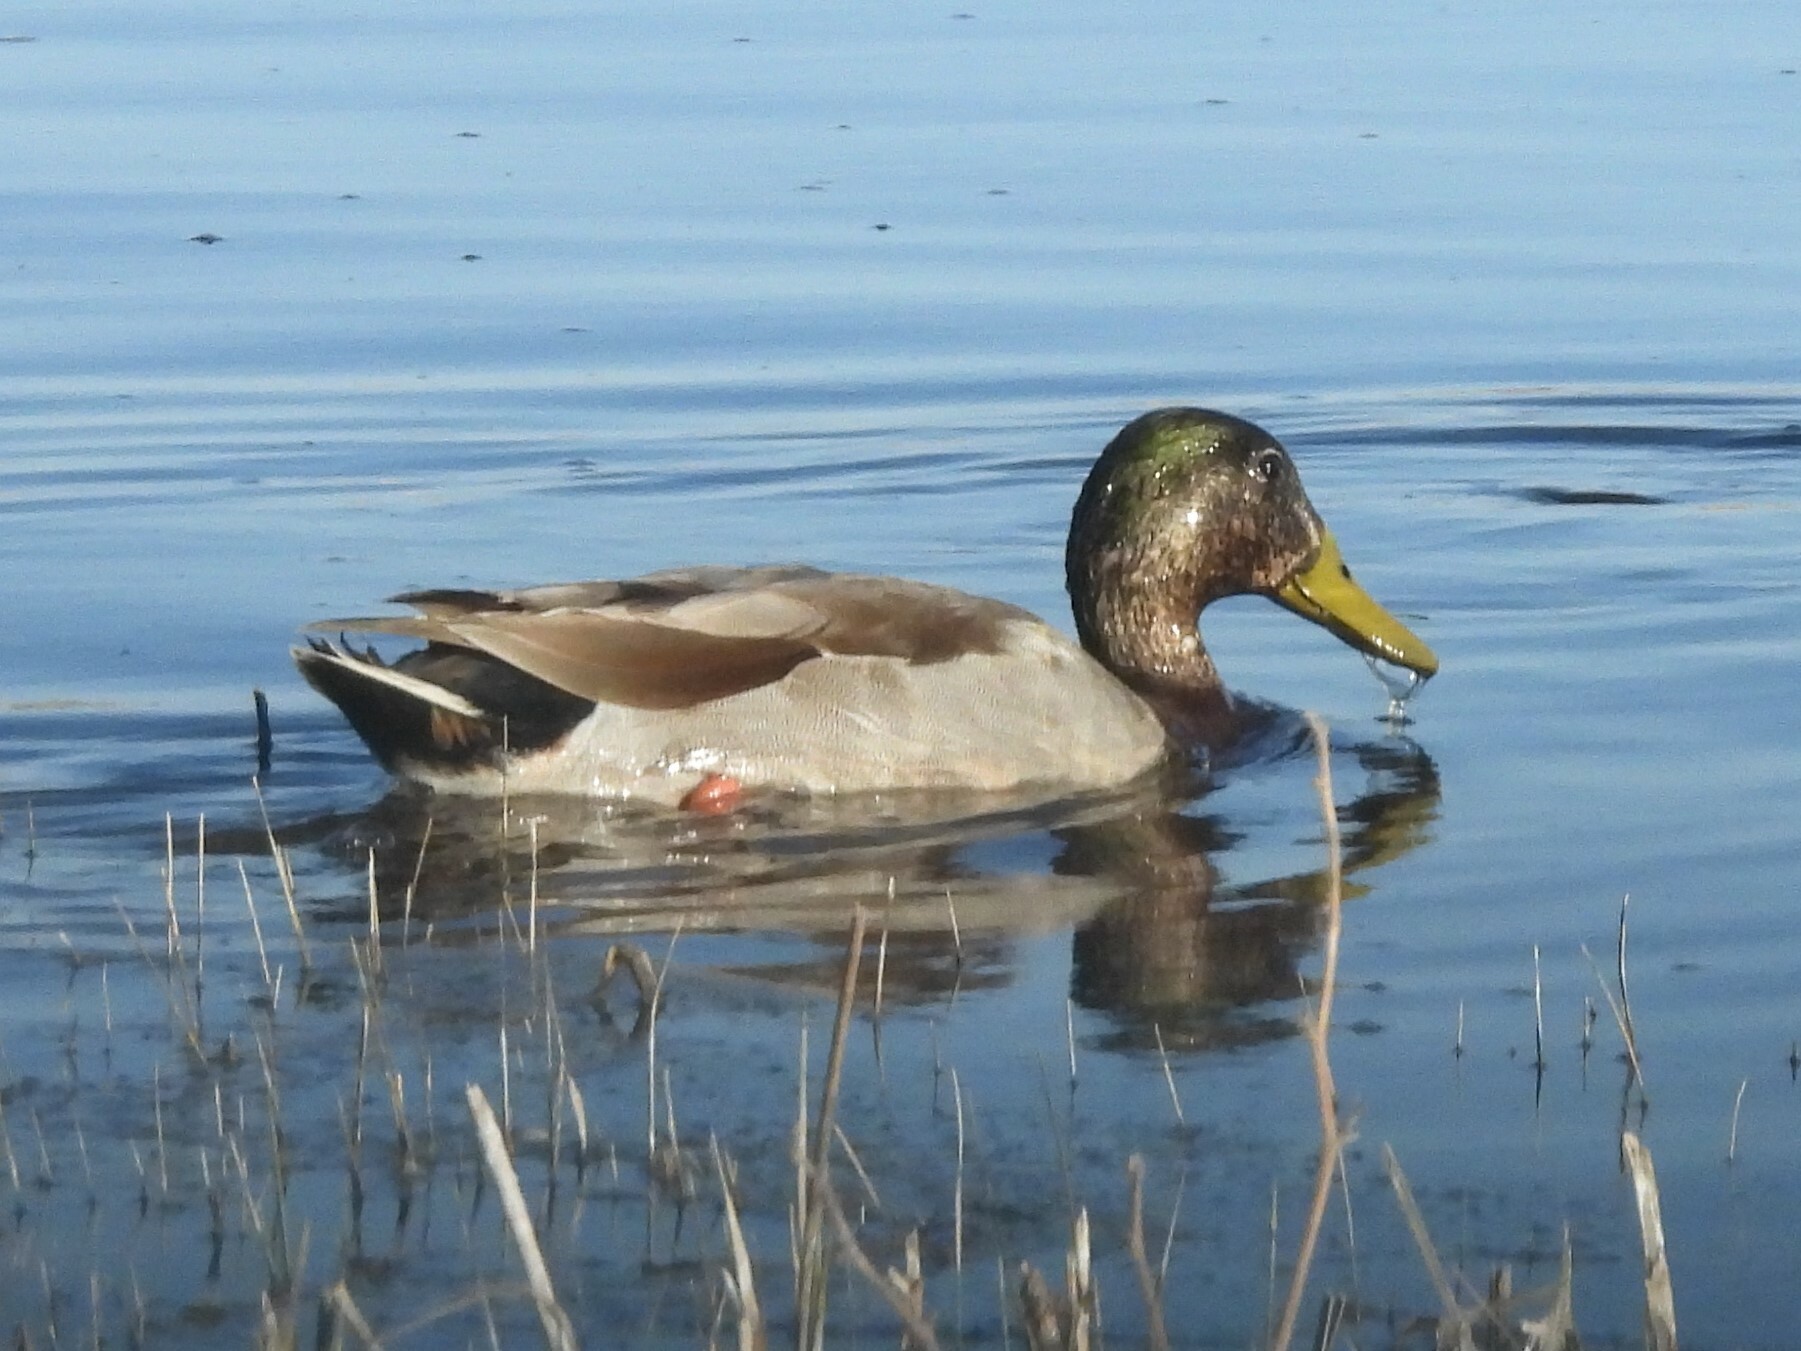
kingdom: Animalia
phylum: Chordata
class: Aves
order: Anseriformes
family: Anatidae
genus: Anas
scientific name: Anas platyrhynchos
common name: Mallard
